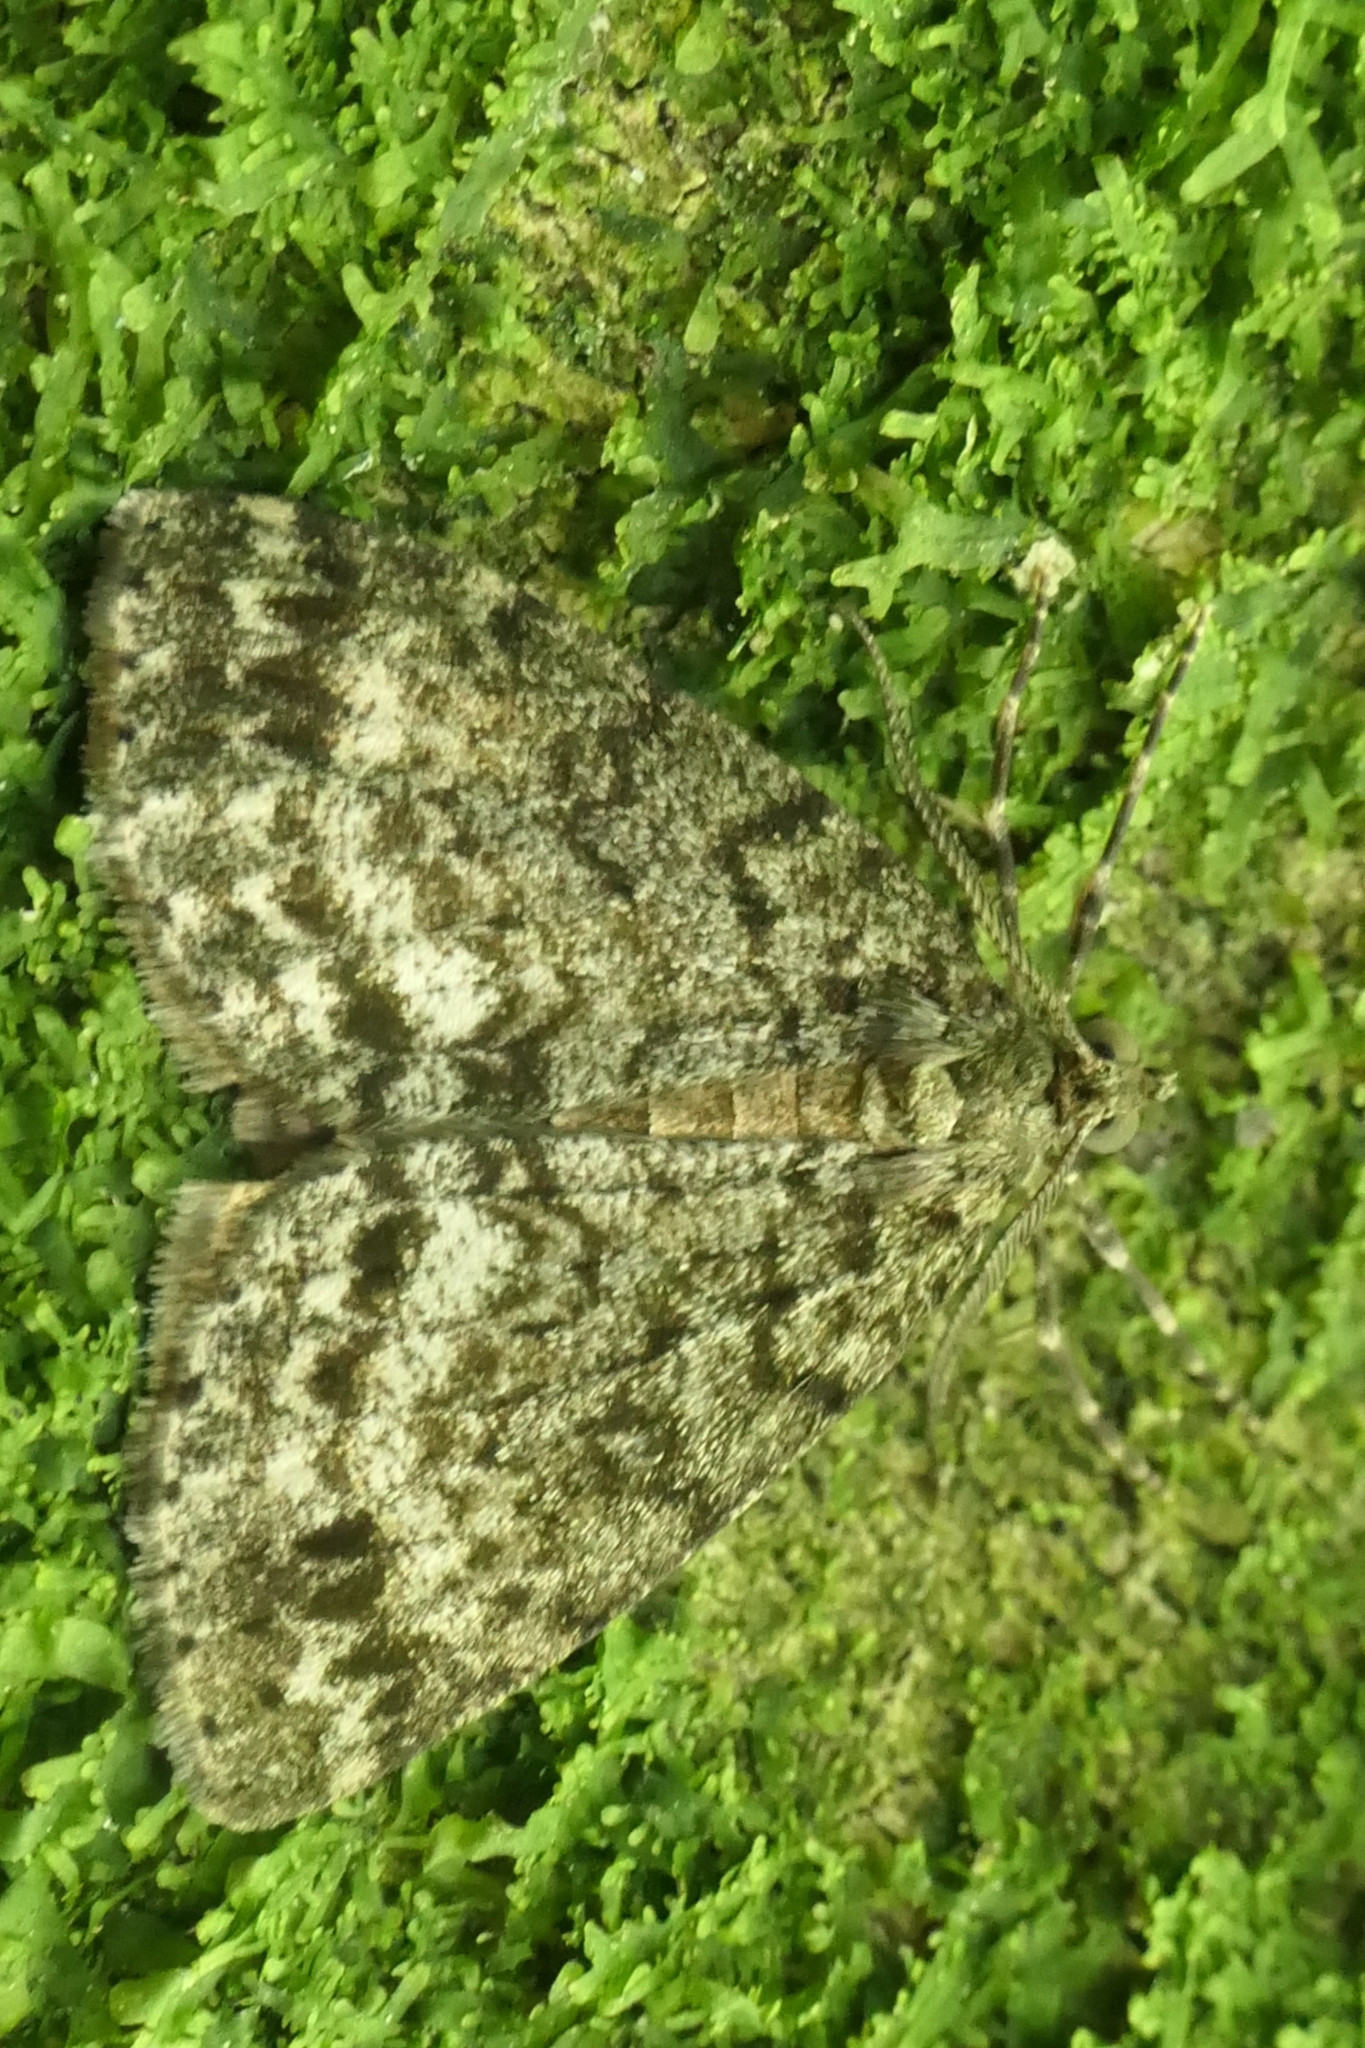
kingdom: Animalia
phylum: Arthropoda
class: Insecta
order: Lepidoptera
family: Geometridae
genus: Pseudocoremia
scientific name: Pseudocoremia indistincta
